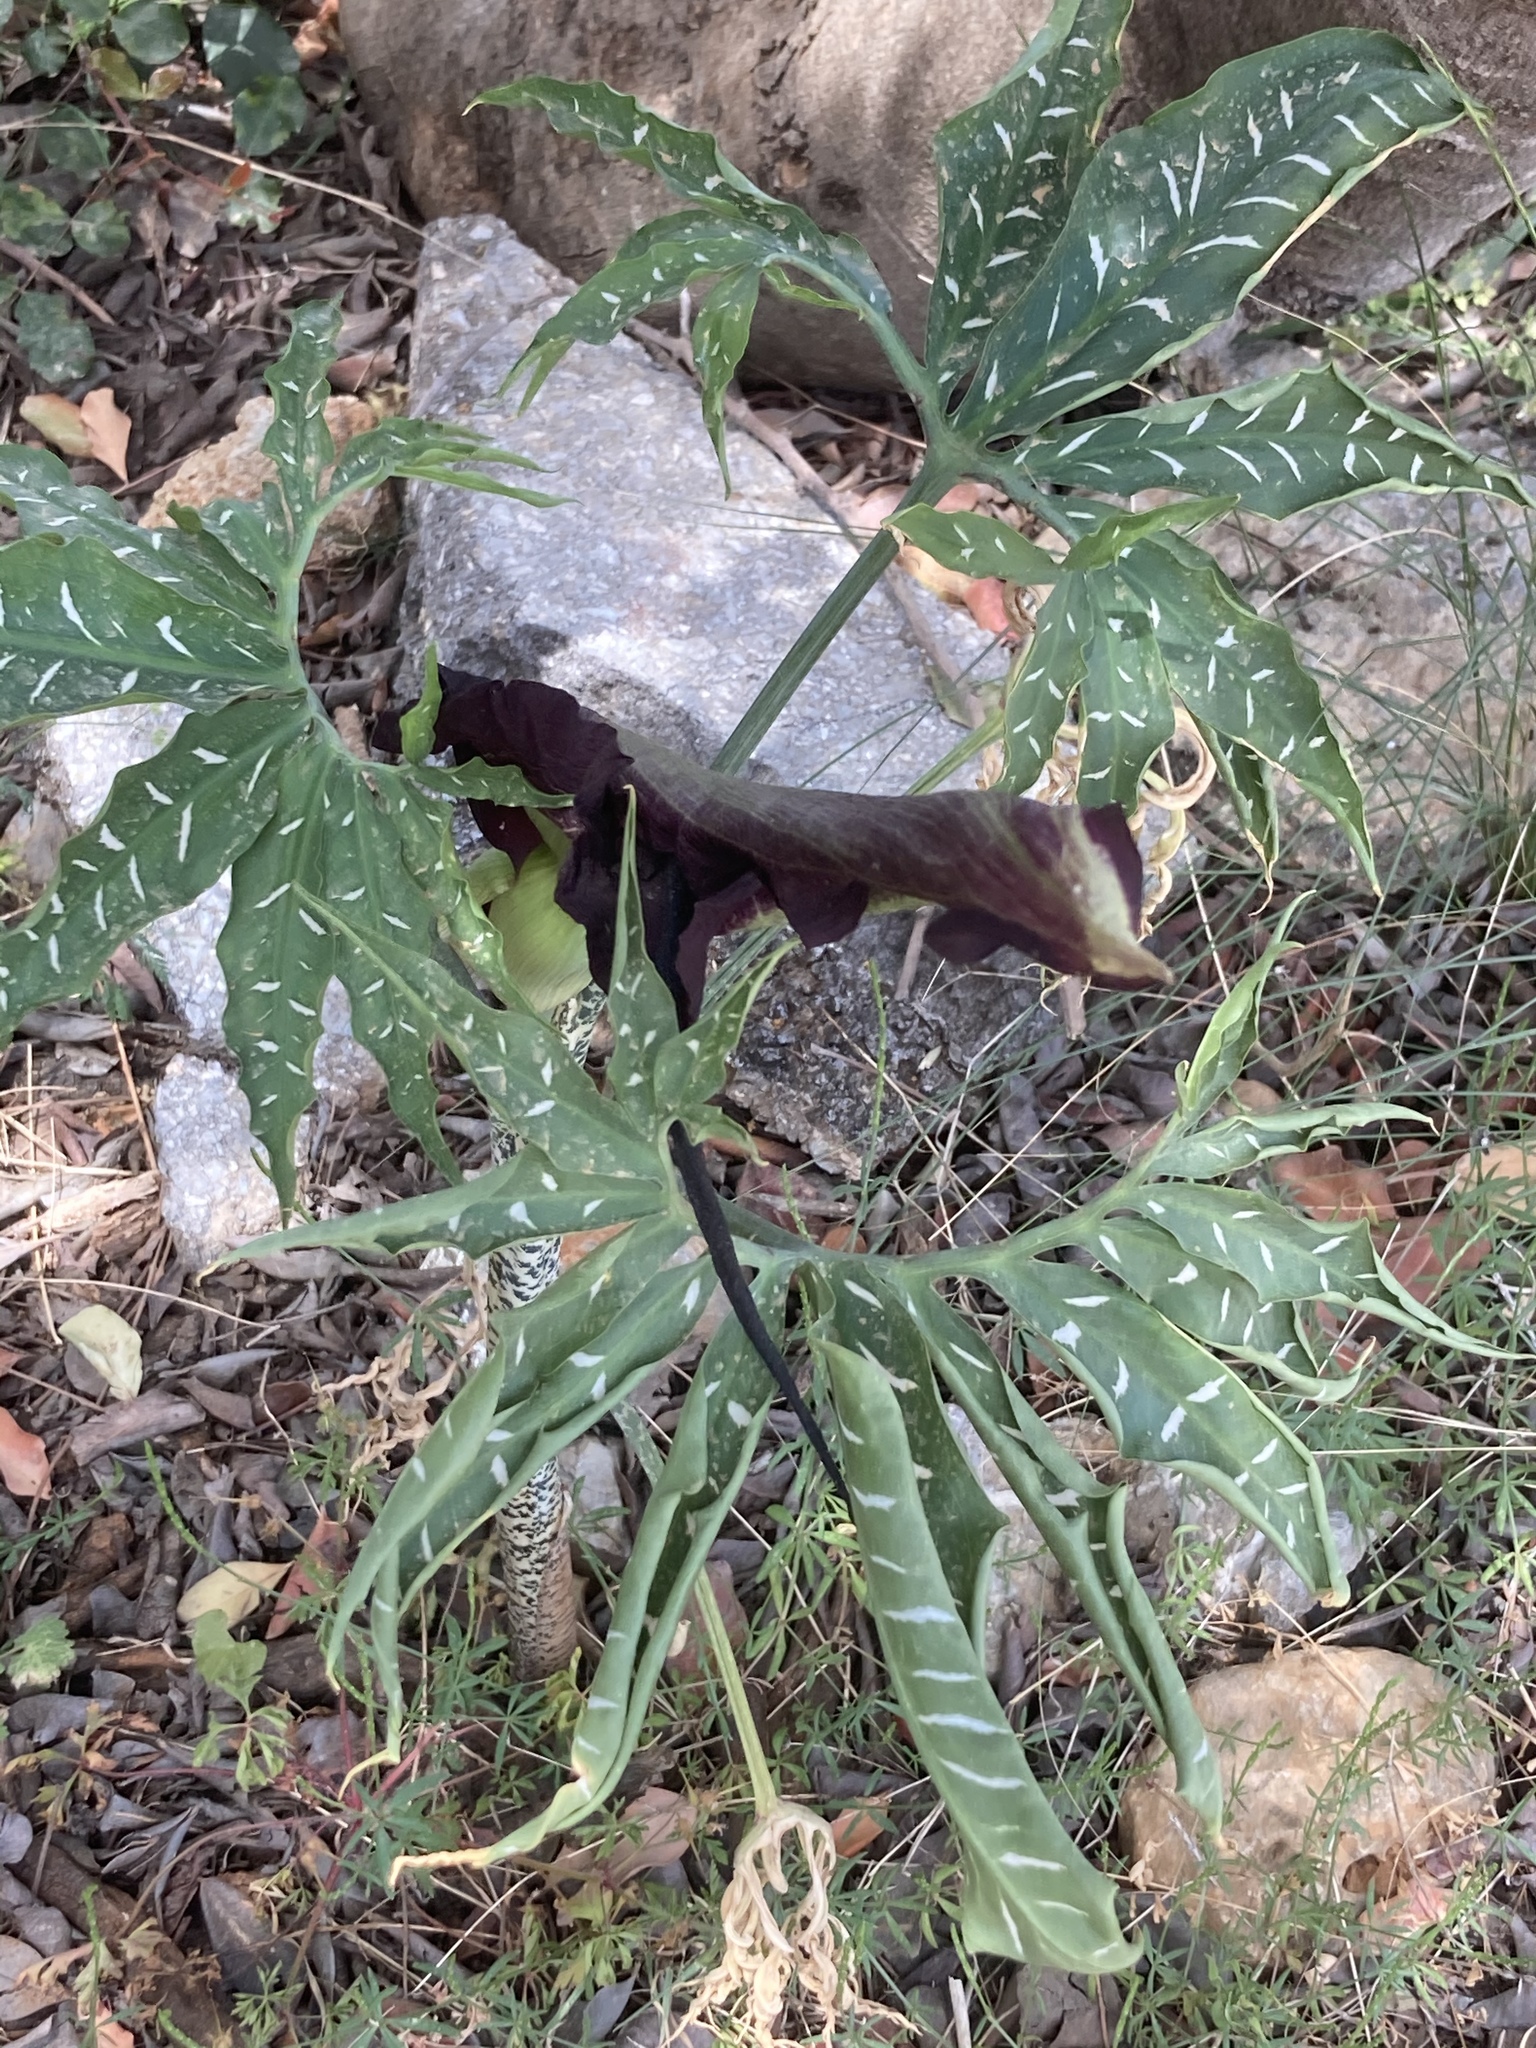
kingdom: Plantae
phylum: Tracheophyta
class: Liliopsida
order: Alismatales
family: Araceae
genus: Dracunculus
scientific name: Dracunculus vulgaris
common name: Dragon arum
